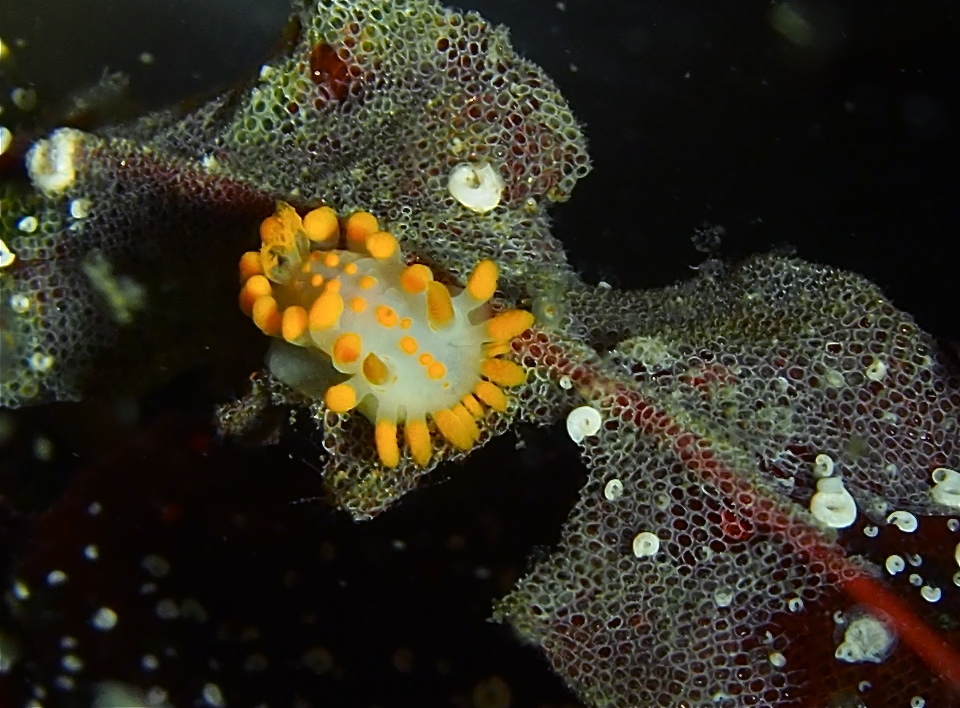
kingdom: Animalia
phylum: Mollusca
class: Gastropoda
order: Nudibranchia
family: Polyceridae
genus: Limacia
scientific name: Limacia clavigera
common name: Orange-clubbed sea slug
